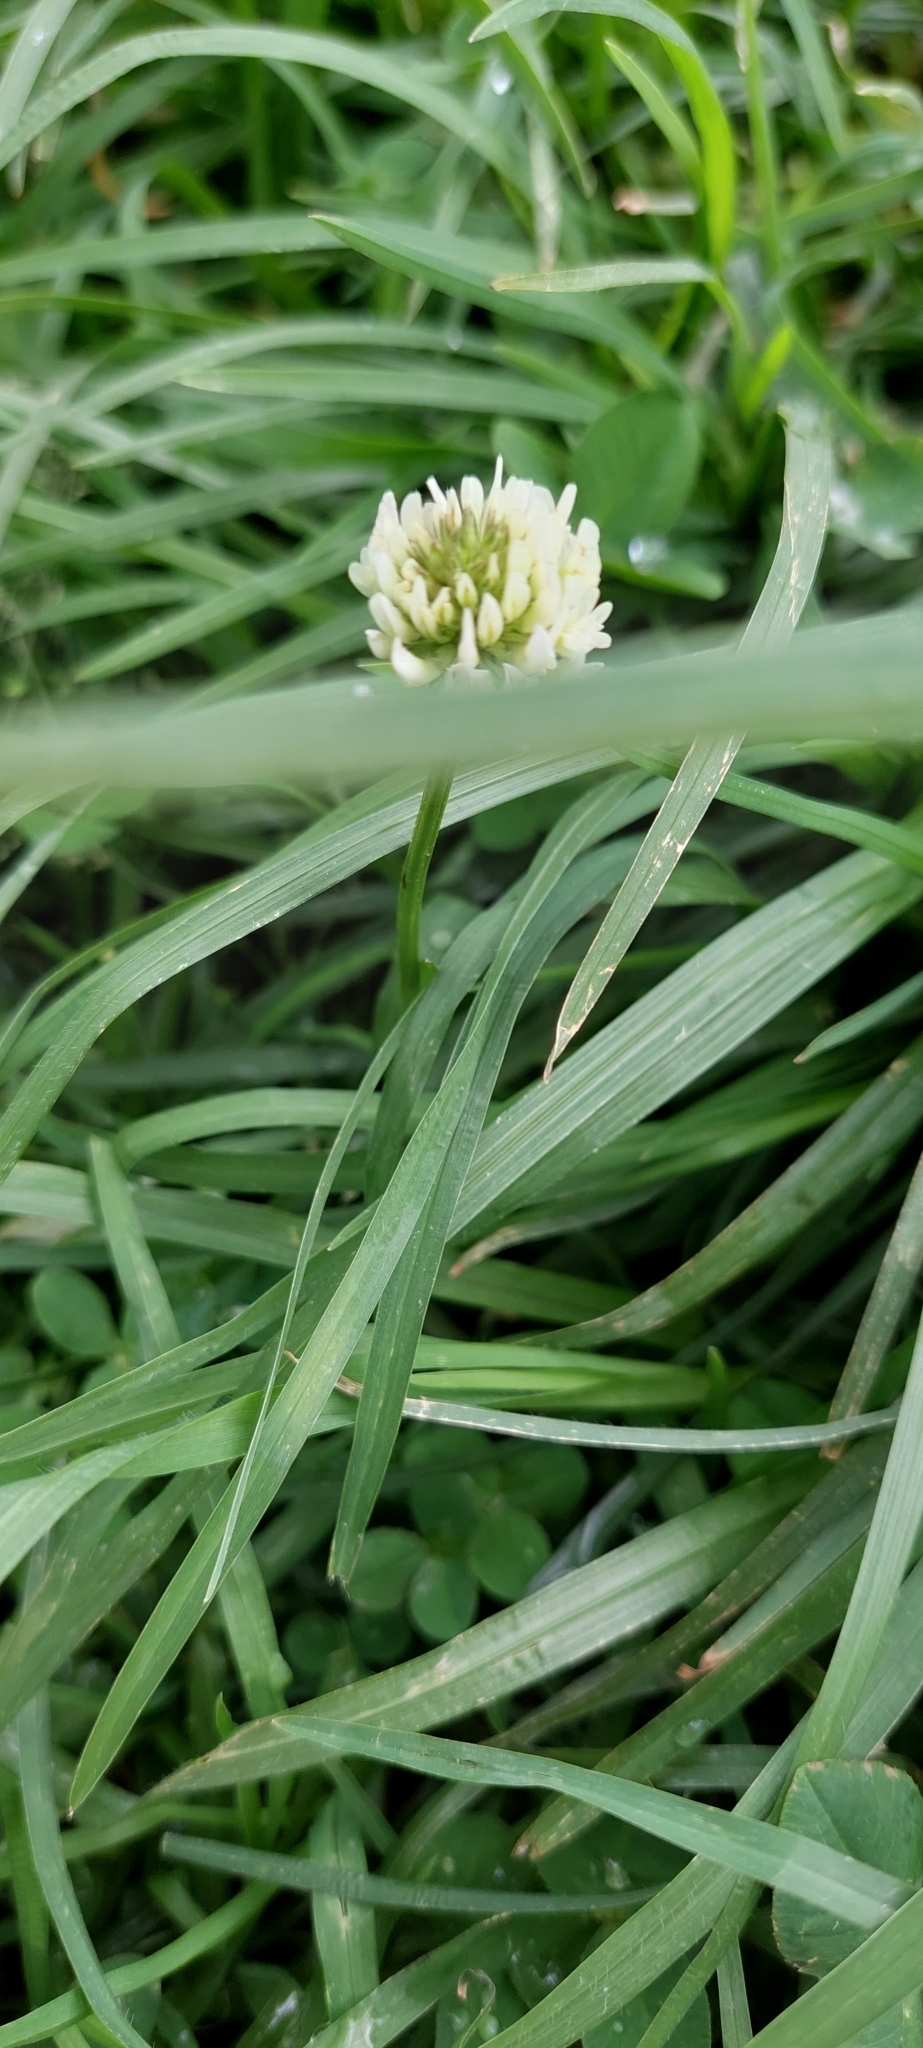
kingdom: Plantae
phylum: Tracheophyta
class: Magnoliopsida
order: Fabales
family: Fabaceae
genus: Trifolium
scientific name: Trifolium repens
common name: White clover
